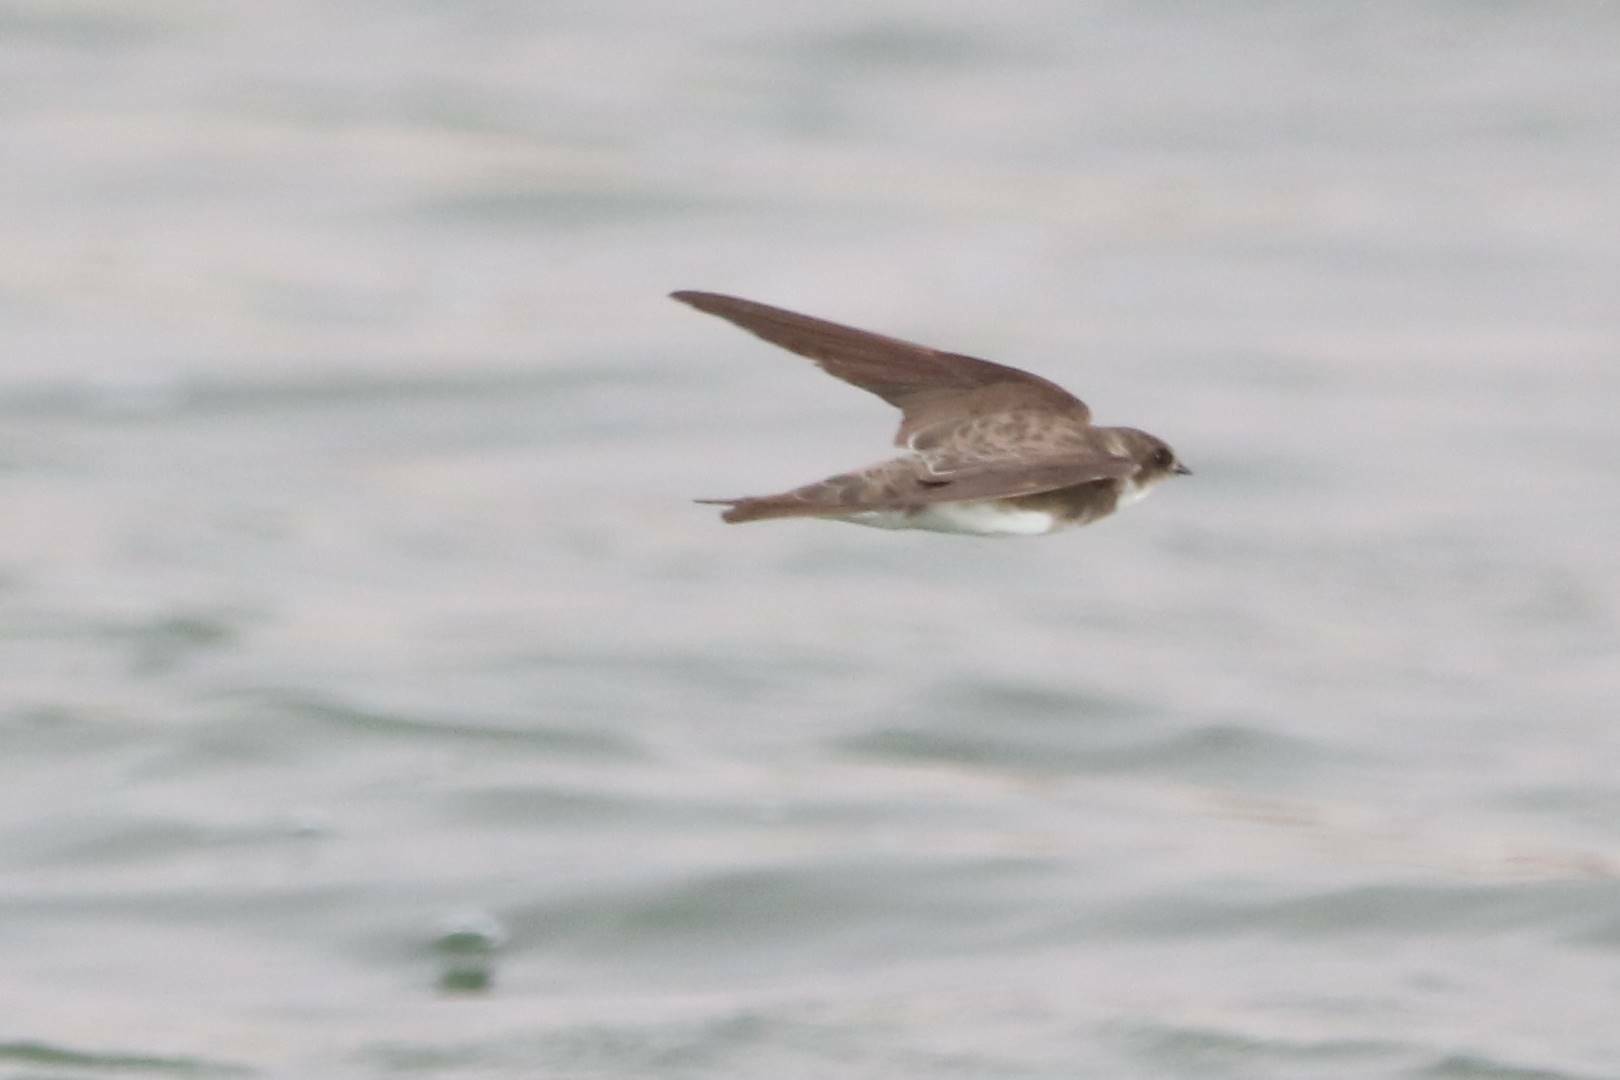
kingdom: Animalia
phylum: Chordata
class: Aves
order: Passeriformes
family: Hirundinidae
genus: Riparia
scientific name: Riparia riparia
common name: Sand martin
